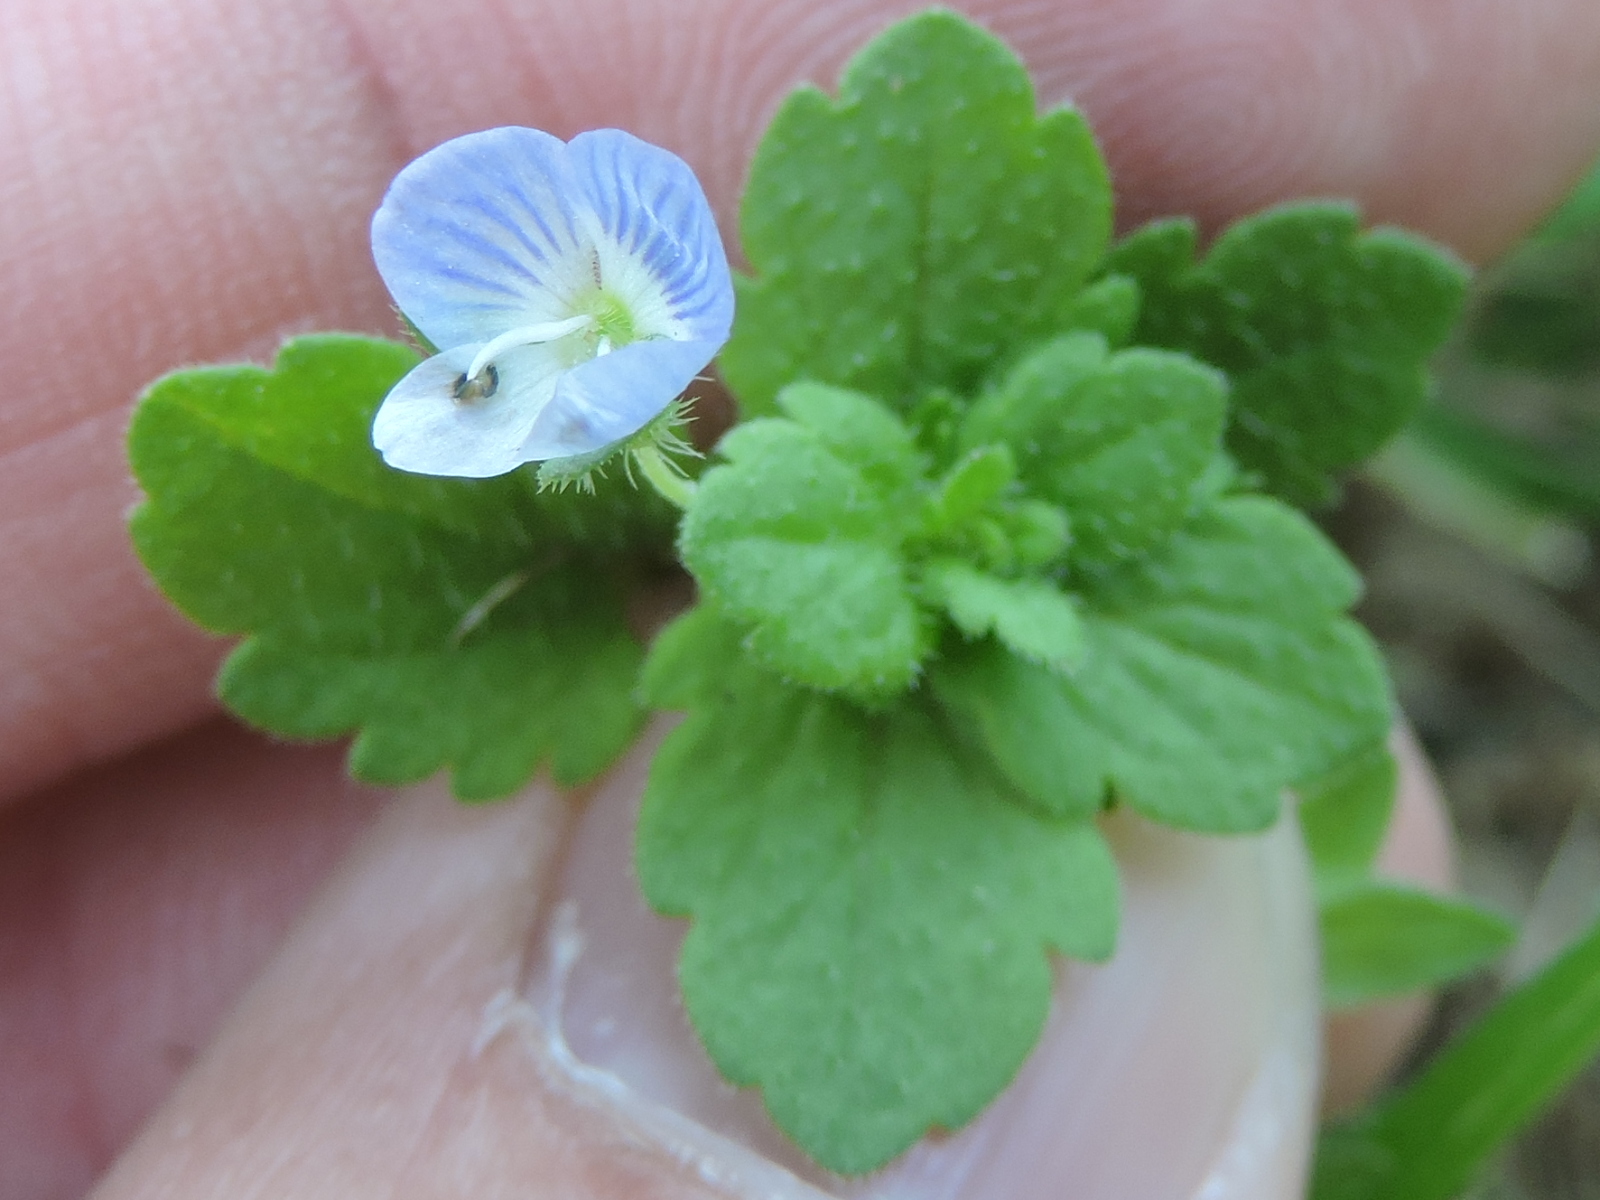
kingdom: Plantae
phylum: Tracheophyta
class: Magnoliopsida
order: Lamiales
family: Plantaginaceae
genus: Veronica
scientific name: Veronica persica
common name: Common field-speedwell
